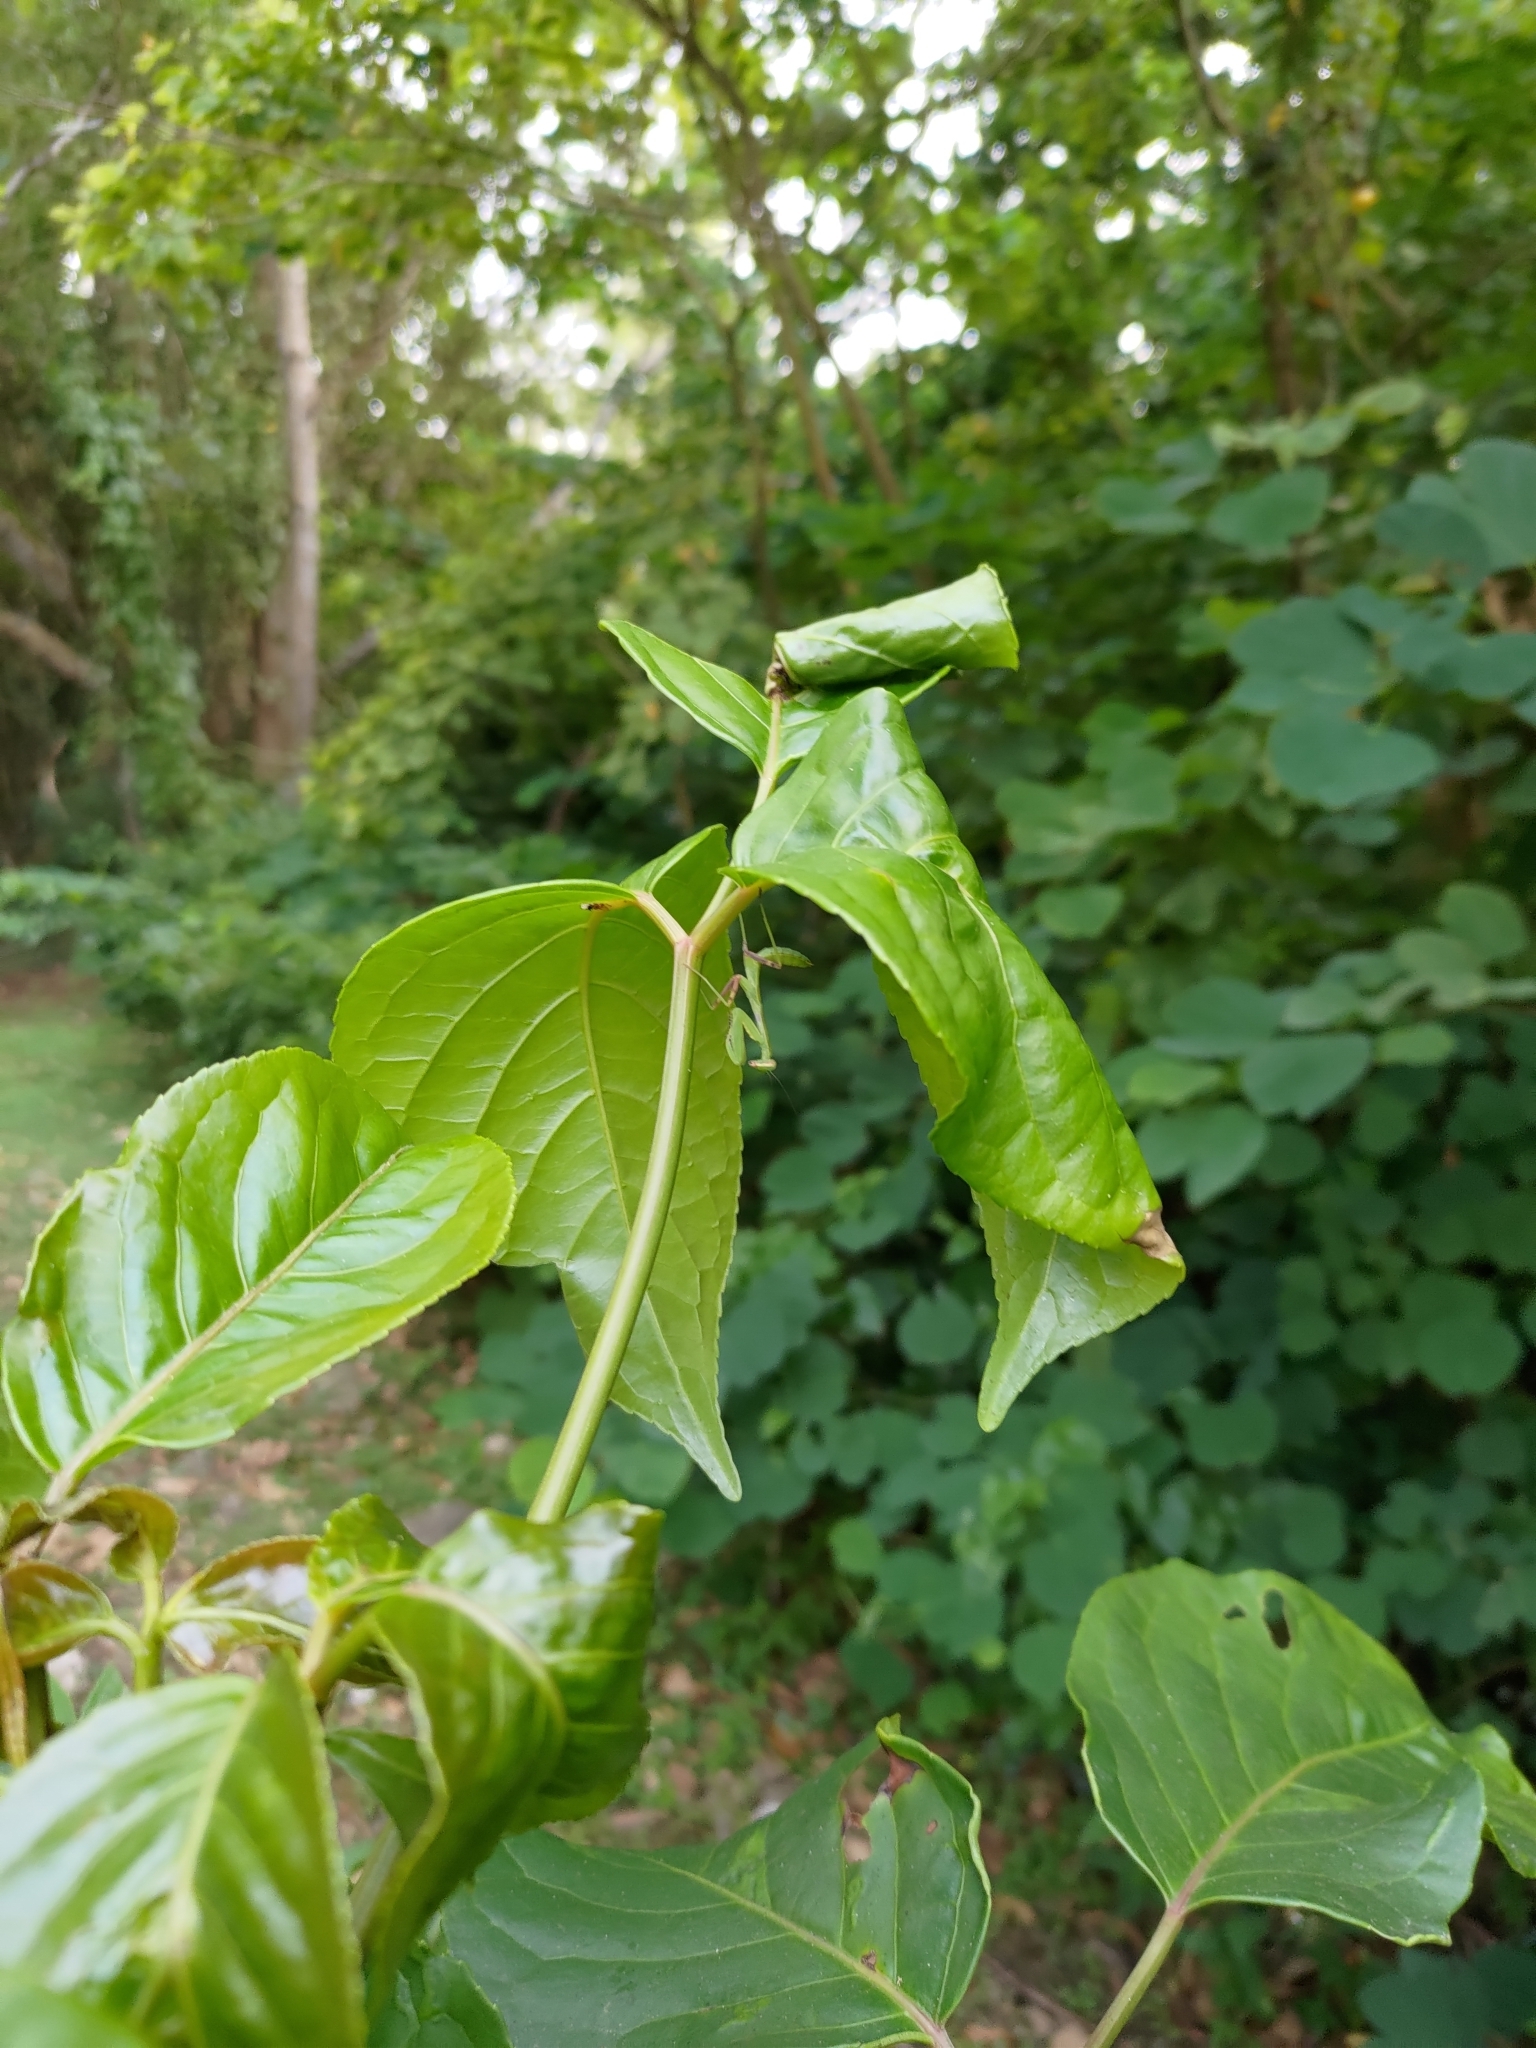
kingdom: Animalia
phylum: Arthropoda
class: Insecta
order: Mantodea
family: Mantidae
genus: Hierodula
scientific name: Hierodula patellifera
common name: Asian mantis
